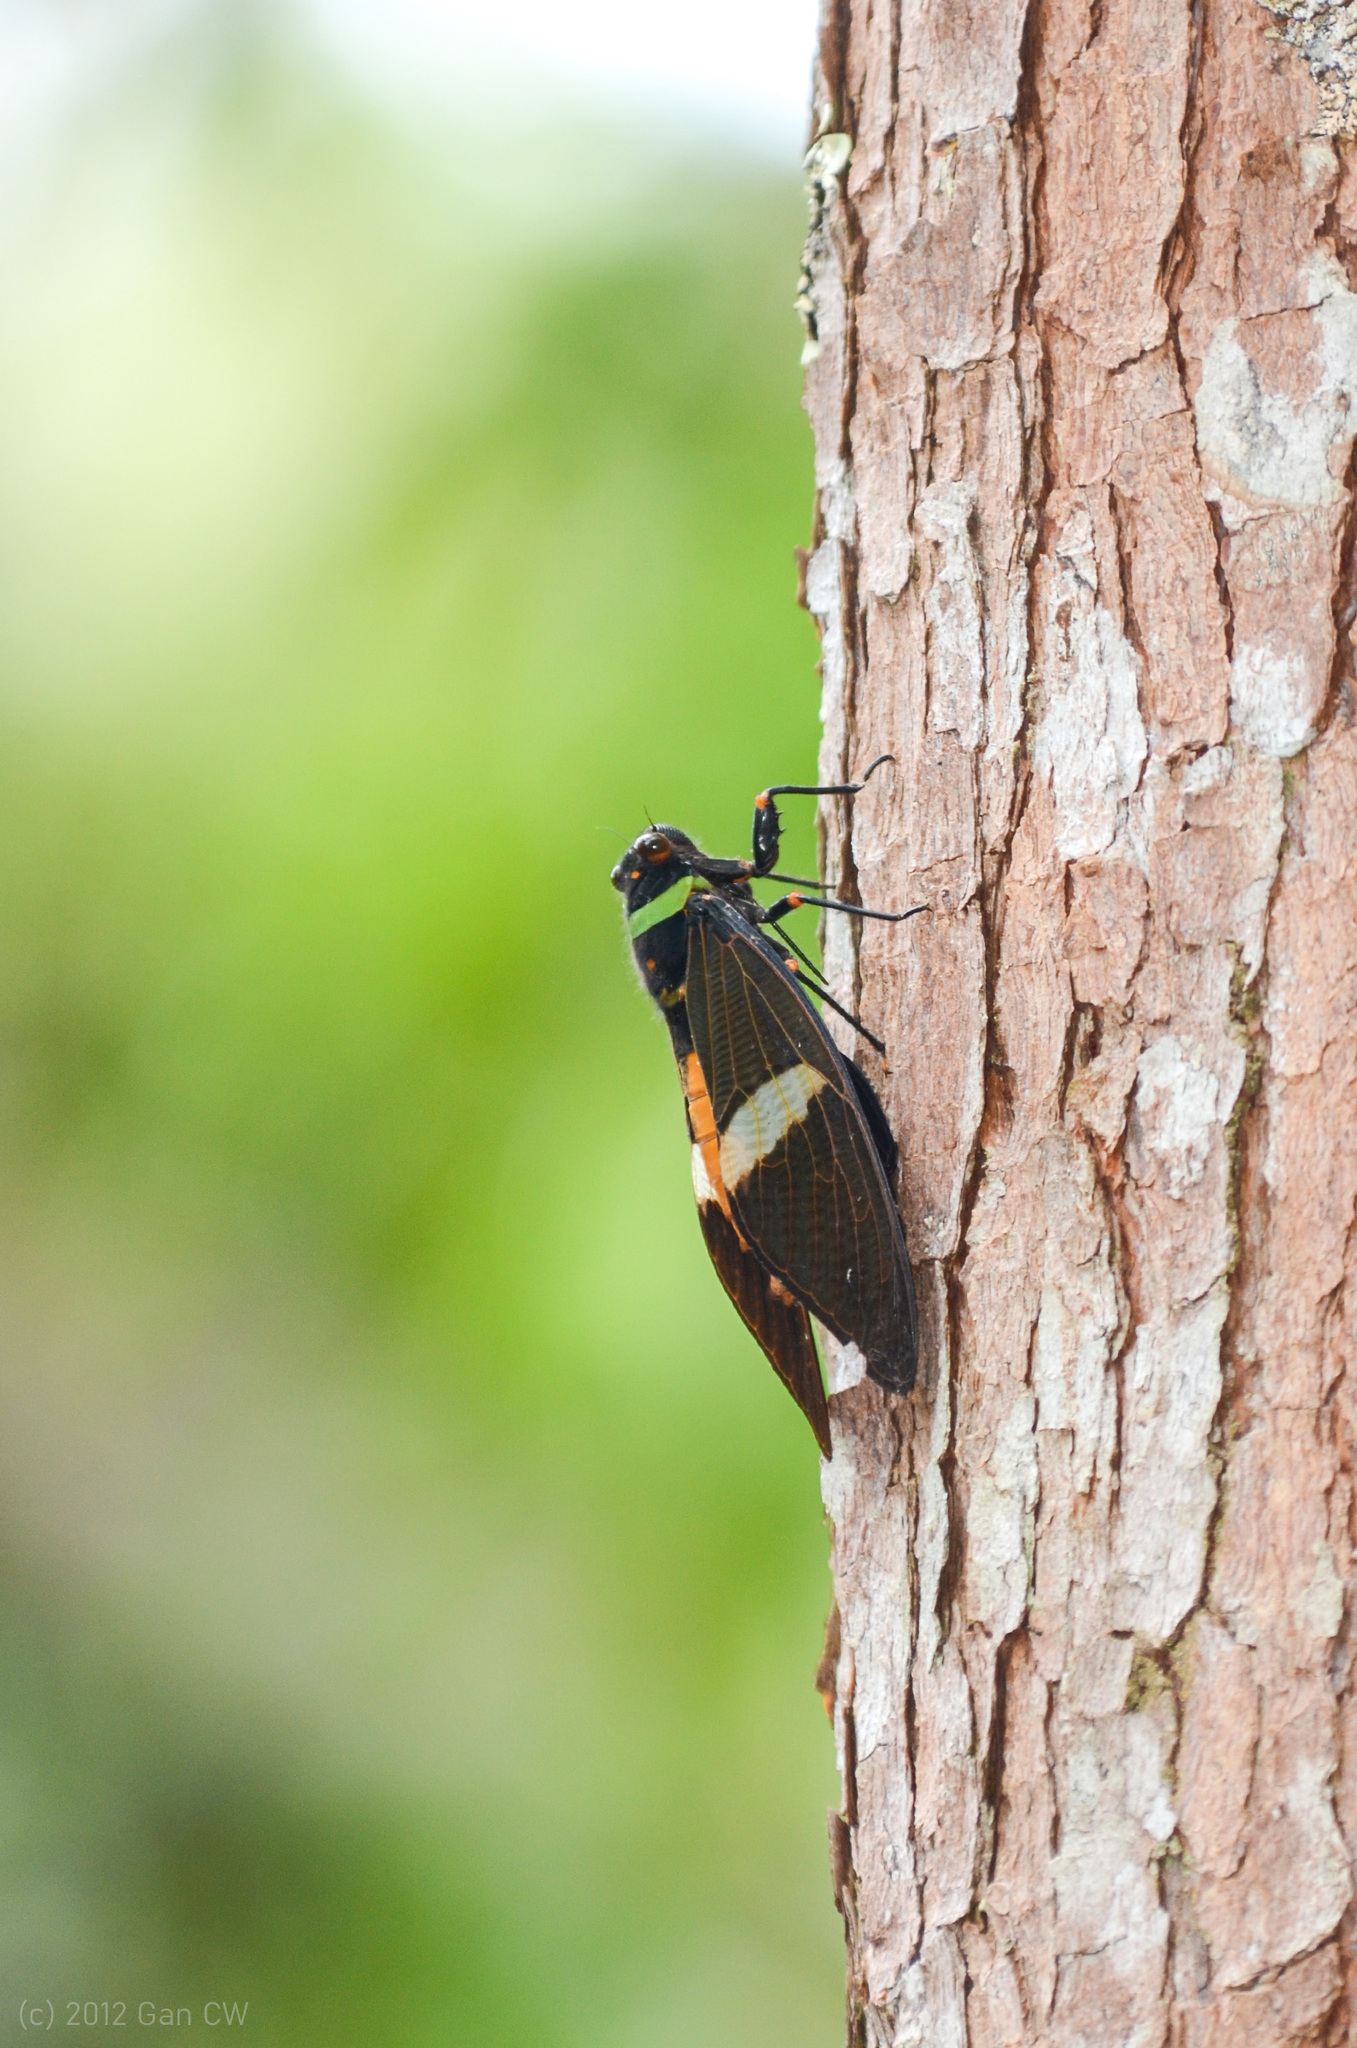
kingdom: Animalia
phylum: Arthropoda
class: Insecta
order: Hemiptera
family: Cicadidae
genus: Tosena
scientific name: Tosena fasciata
